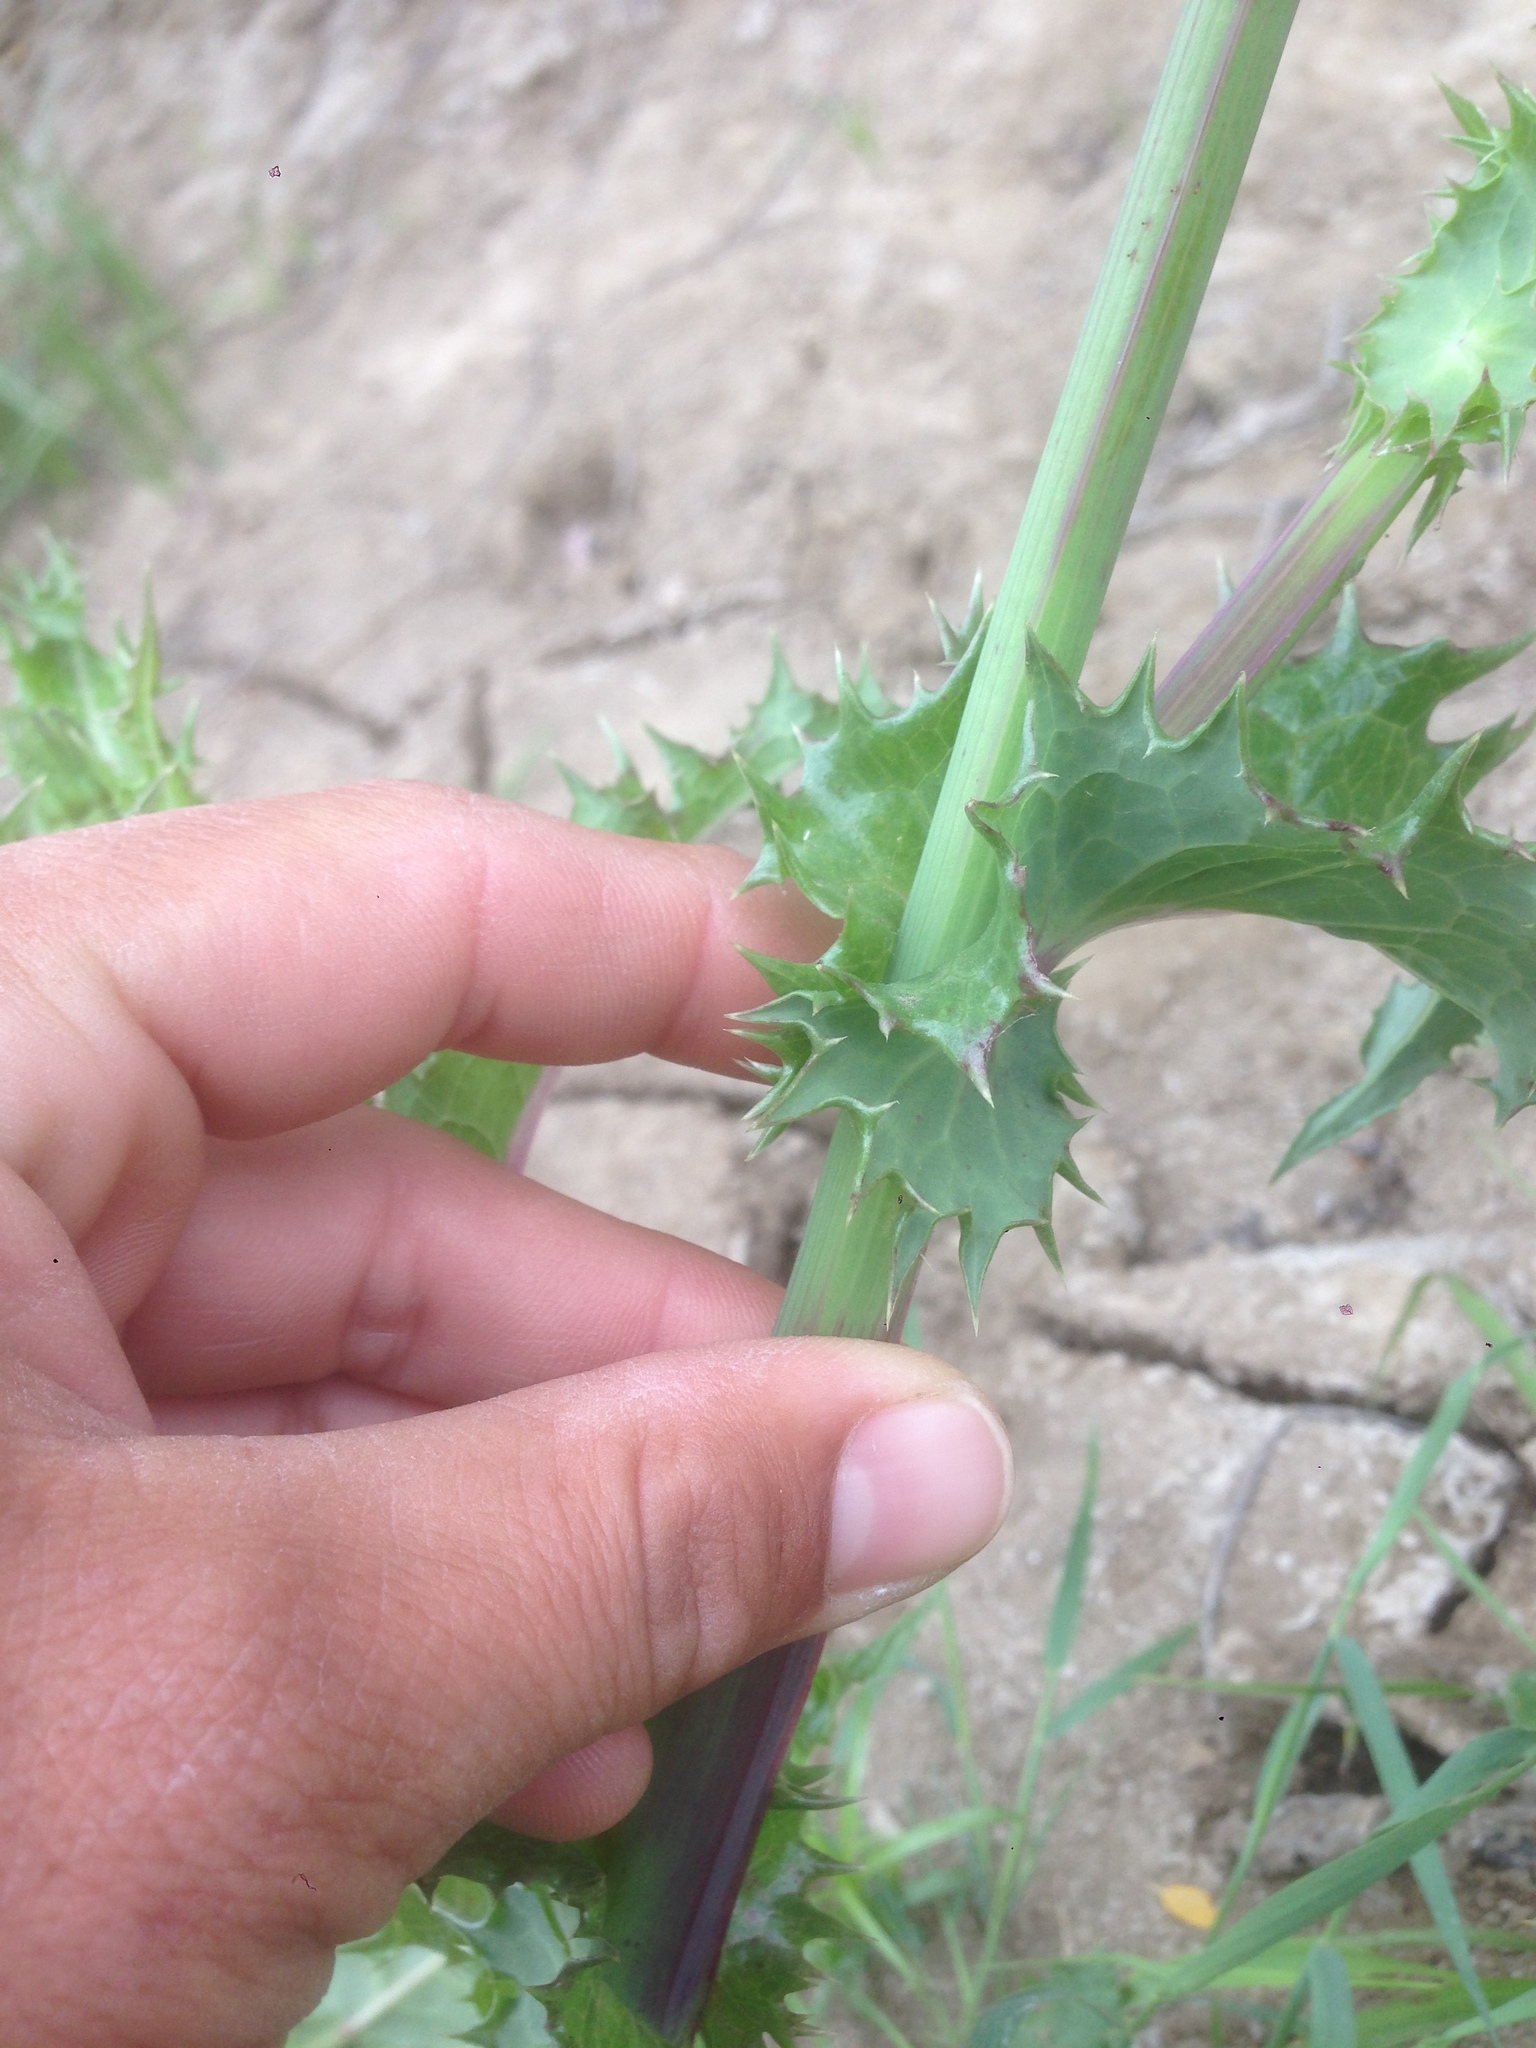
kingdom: Plantae
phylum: Tracheophyta
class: Magnoliopsida
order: Asterales
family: Asteraceae
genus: Sonchus
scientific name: Sonchus asper
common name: Prickly sow-thistle
